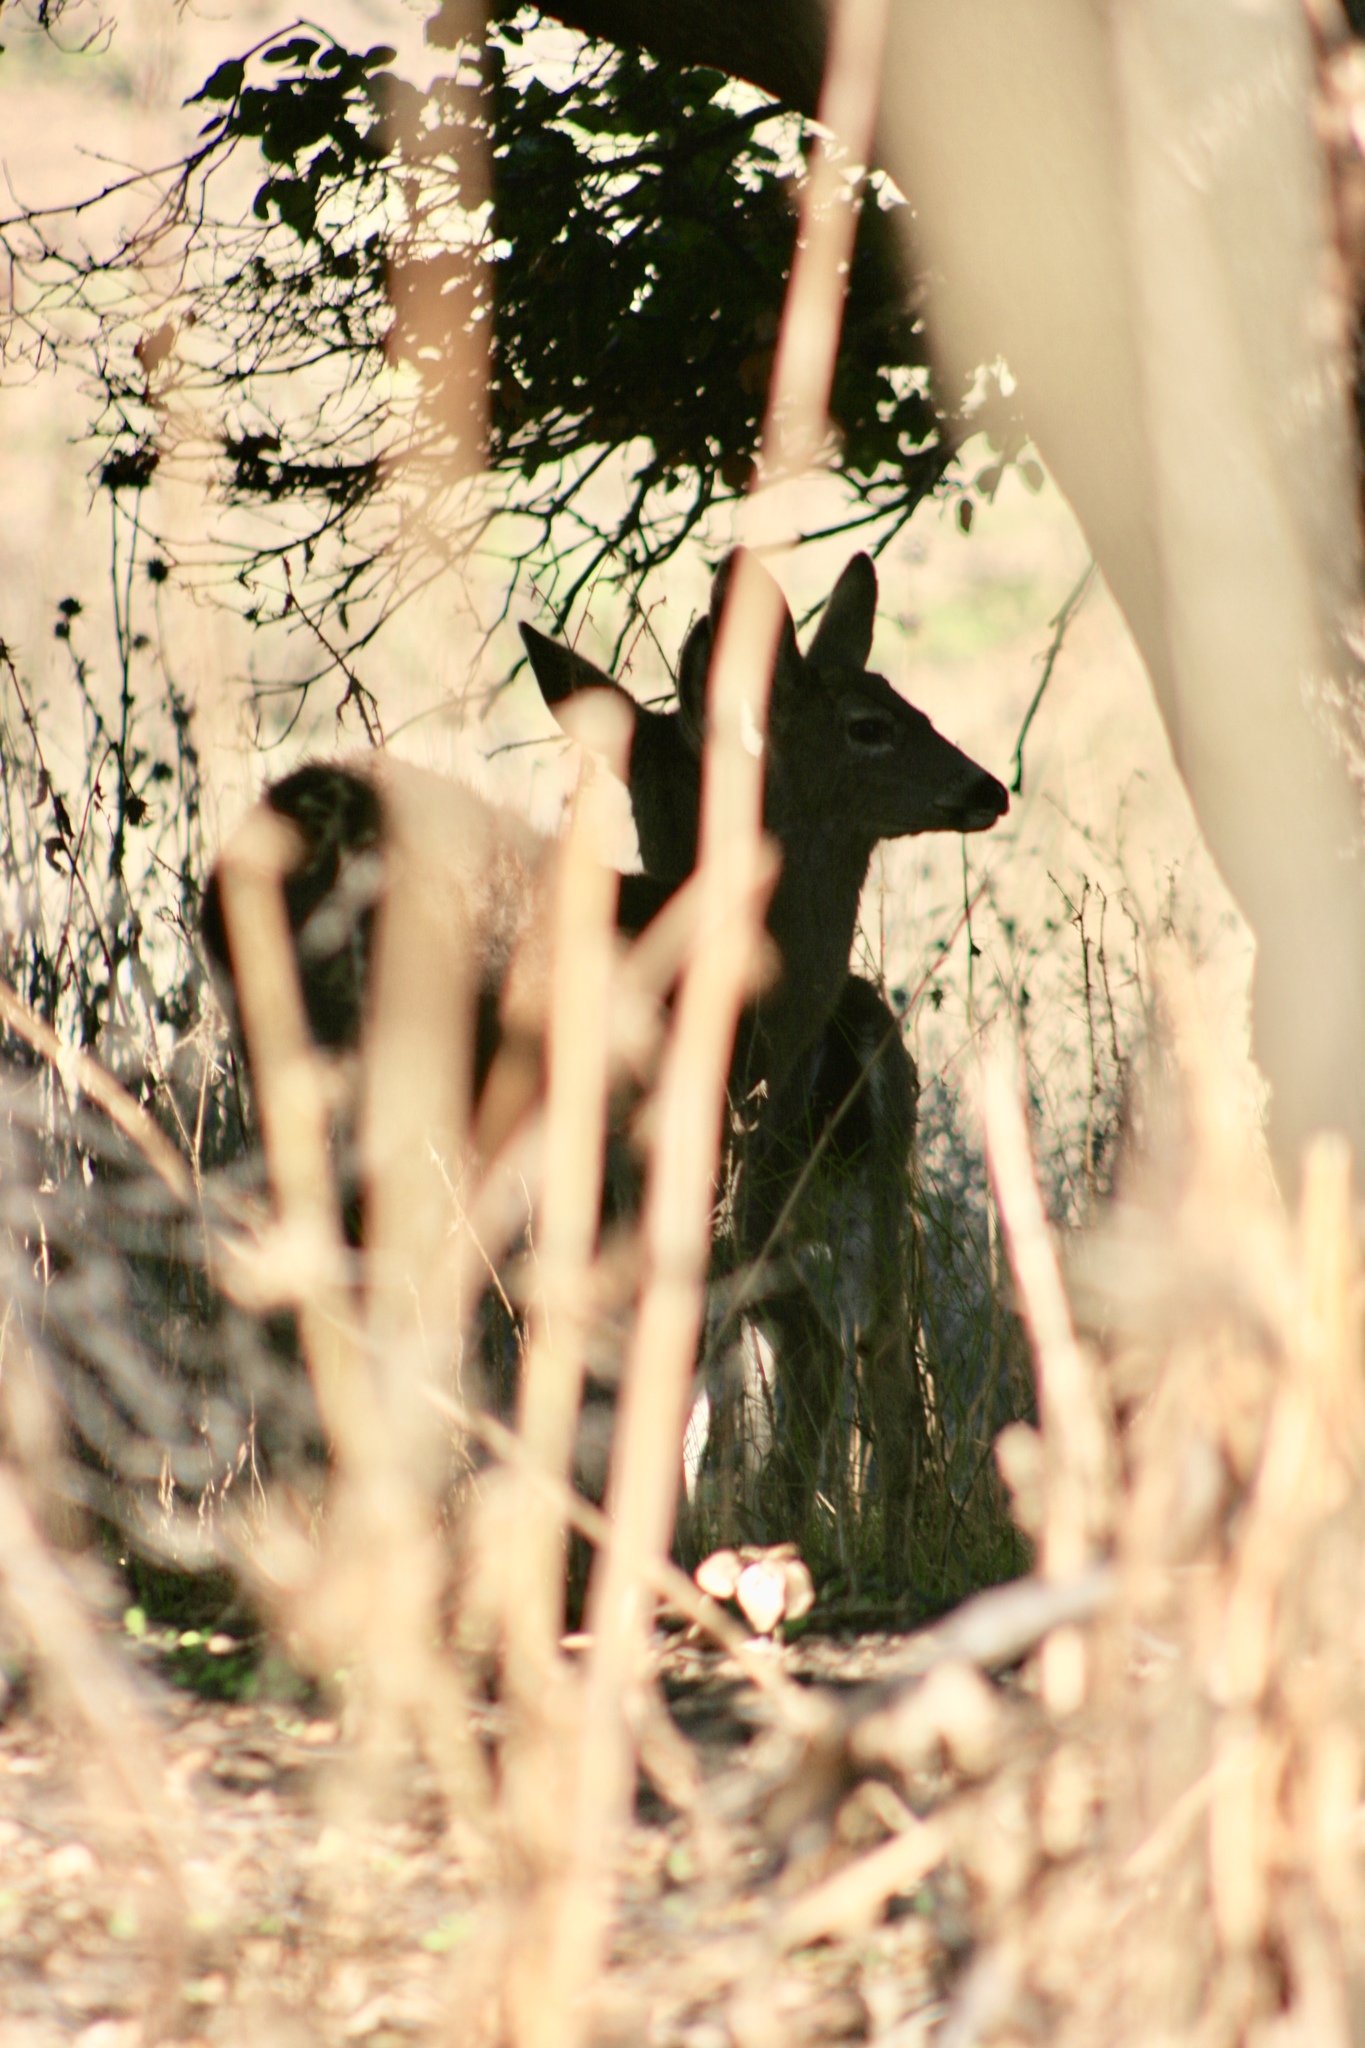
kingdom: Animalia
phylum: Chordata
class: Mammalia
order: Artiodactyla
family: Cervidae
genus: Odocoileus
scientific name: Odocoileus hemionus
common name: Mule deer
